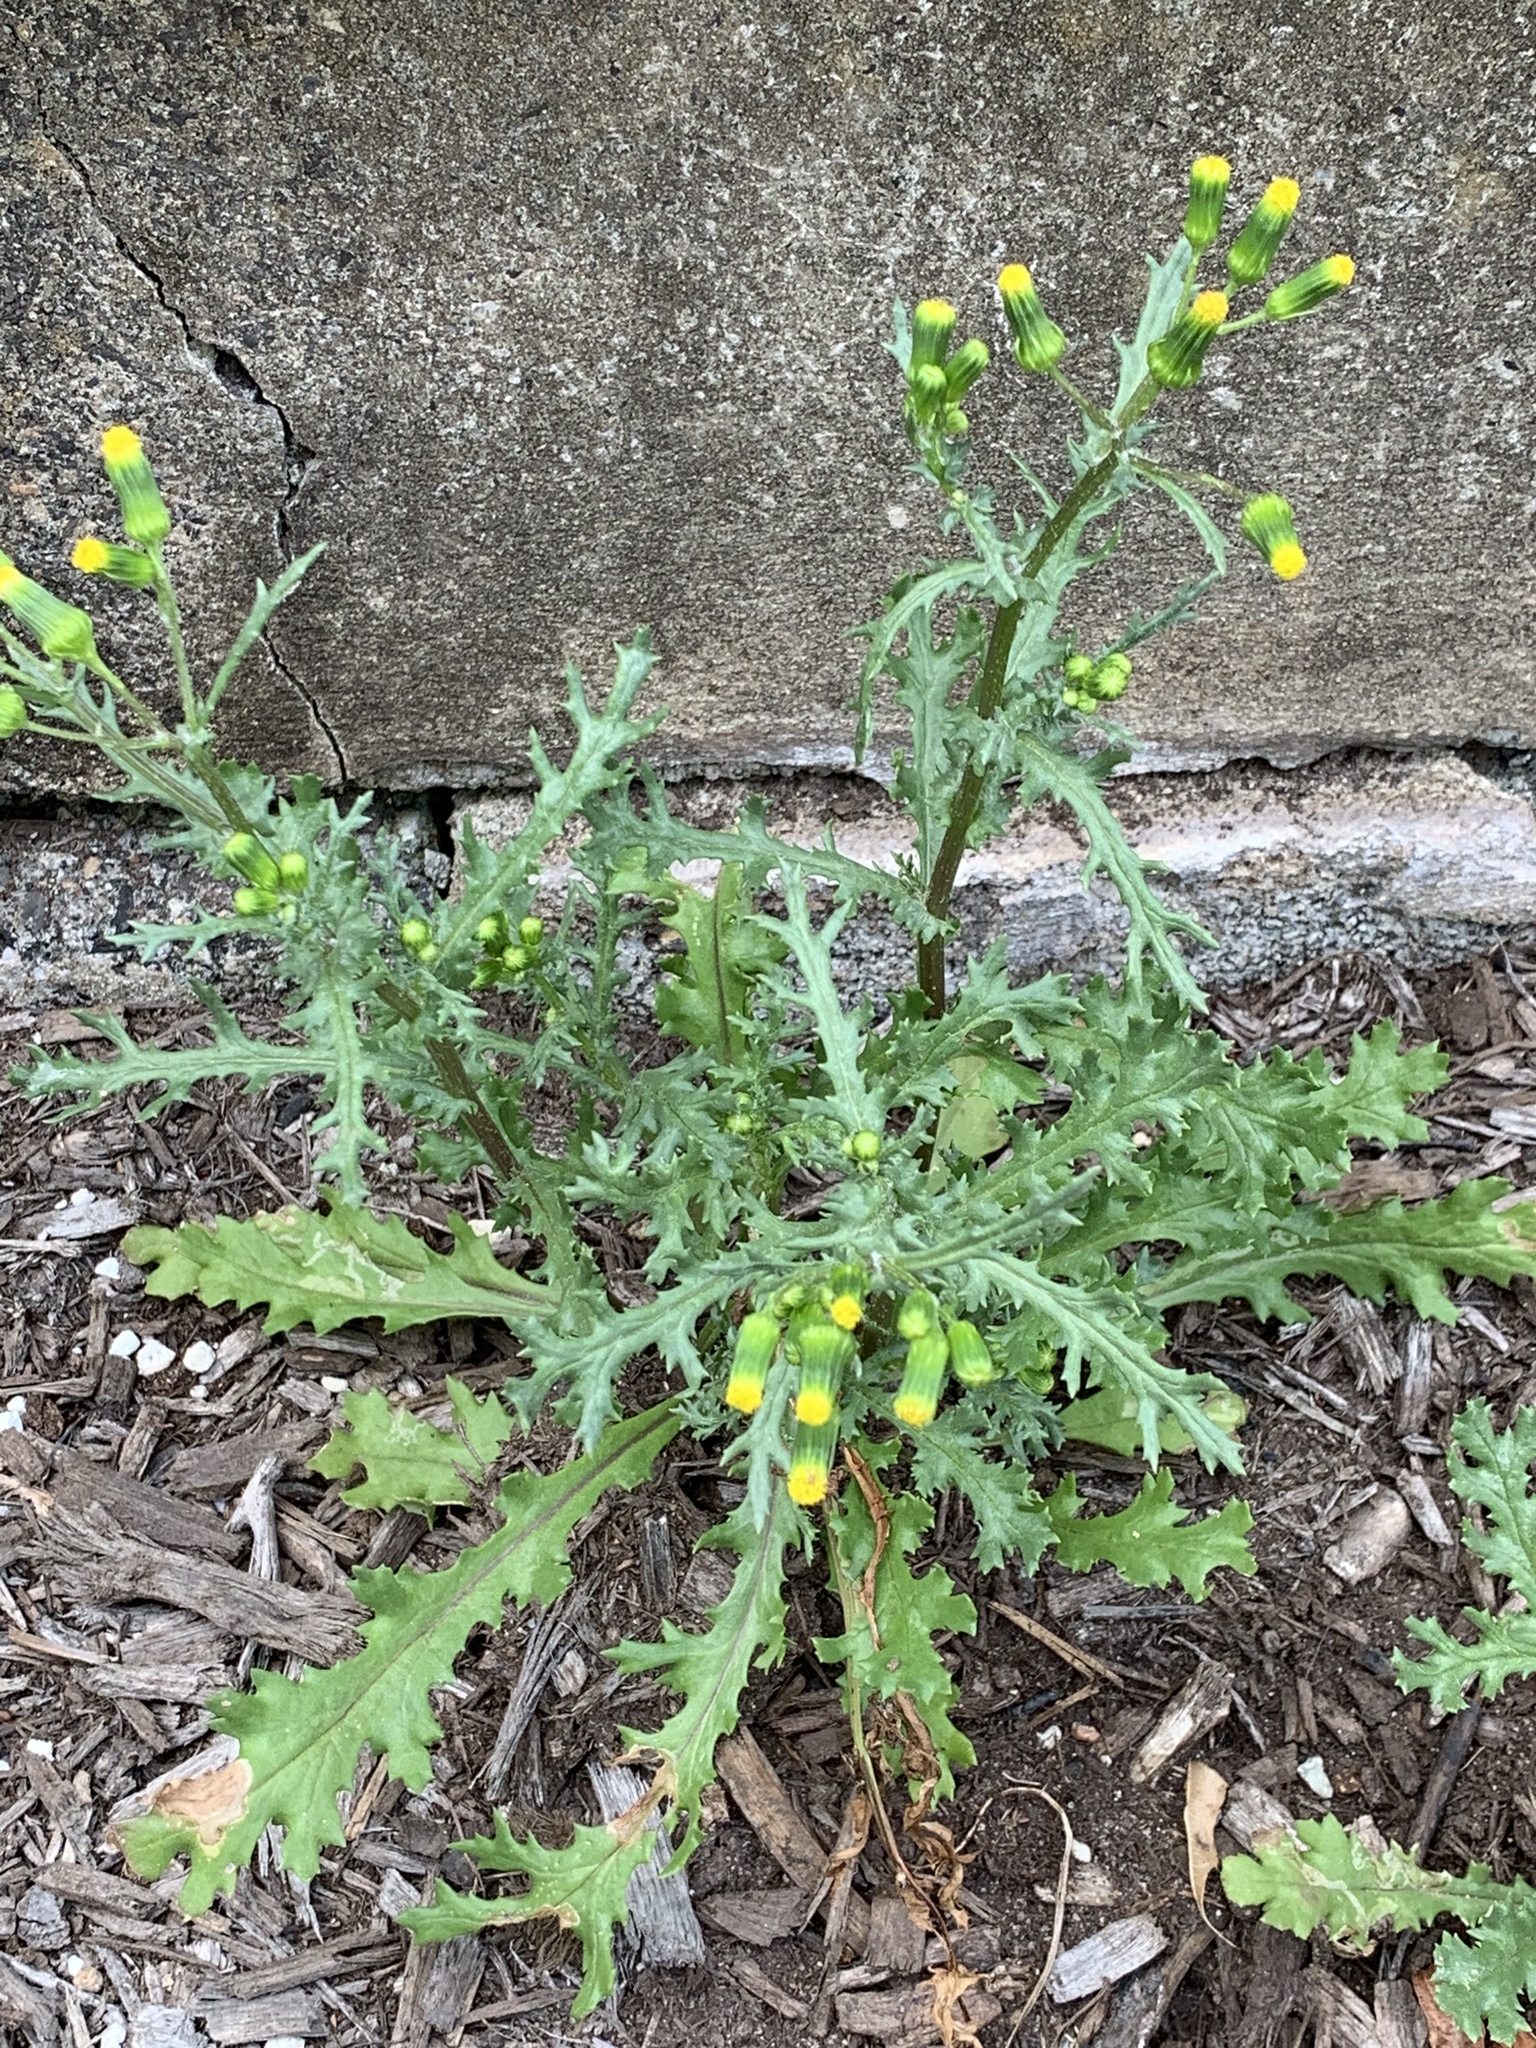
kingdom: Plantae
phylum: Tracheophyta
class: Magnoliopsida
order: Asterales
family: Asteraceae
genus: Senecio
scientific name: Senecio vulgaris
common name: Old-man-in-the-spring
